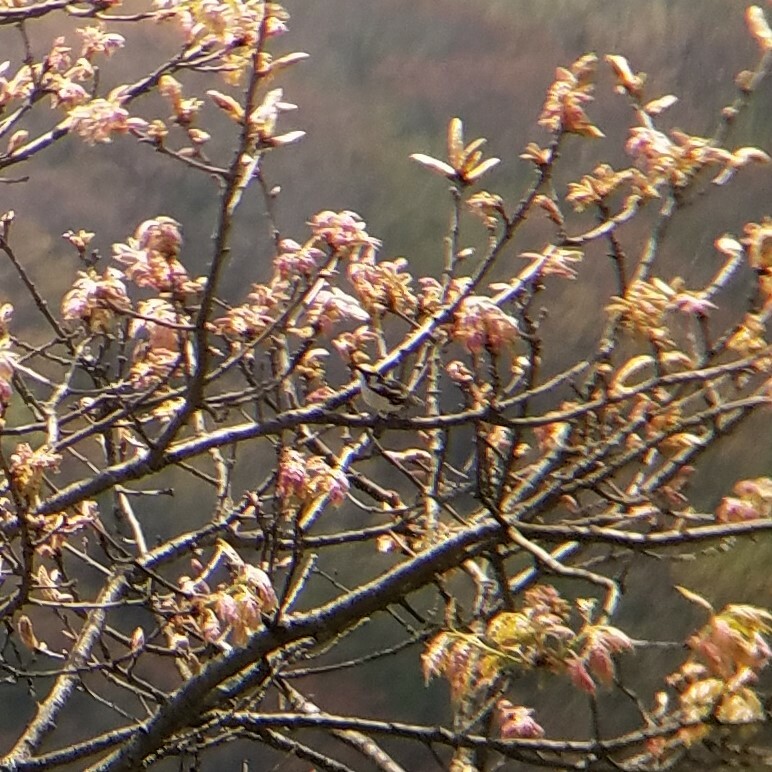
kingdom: Animalia
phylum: Chordata
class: Aves
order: Passeriformes
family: Parulidae
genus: Setophaga
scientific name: Setophaga pensylvanica
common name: Chestnut-sided warbler
